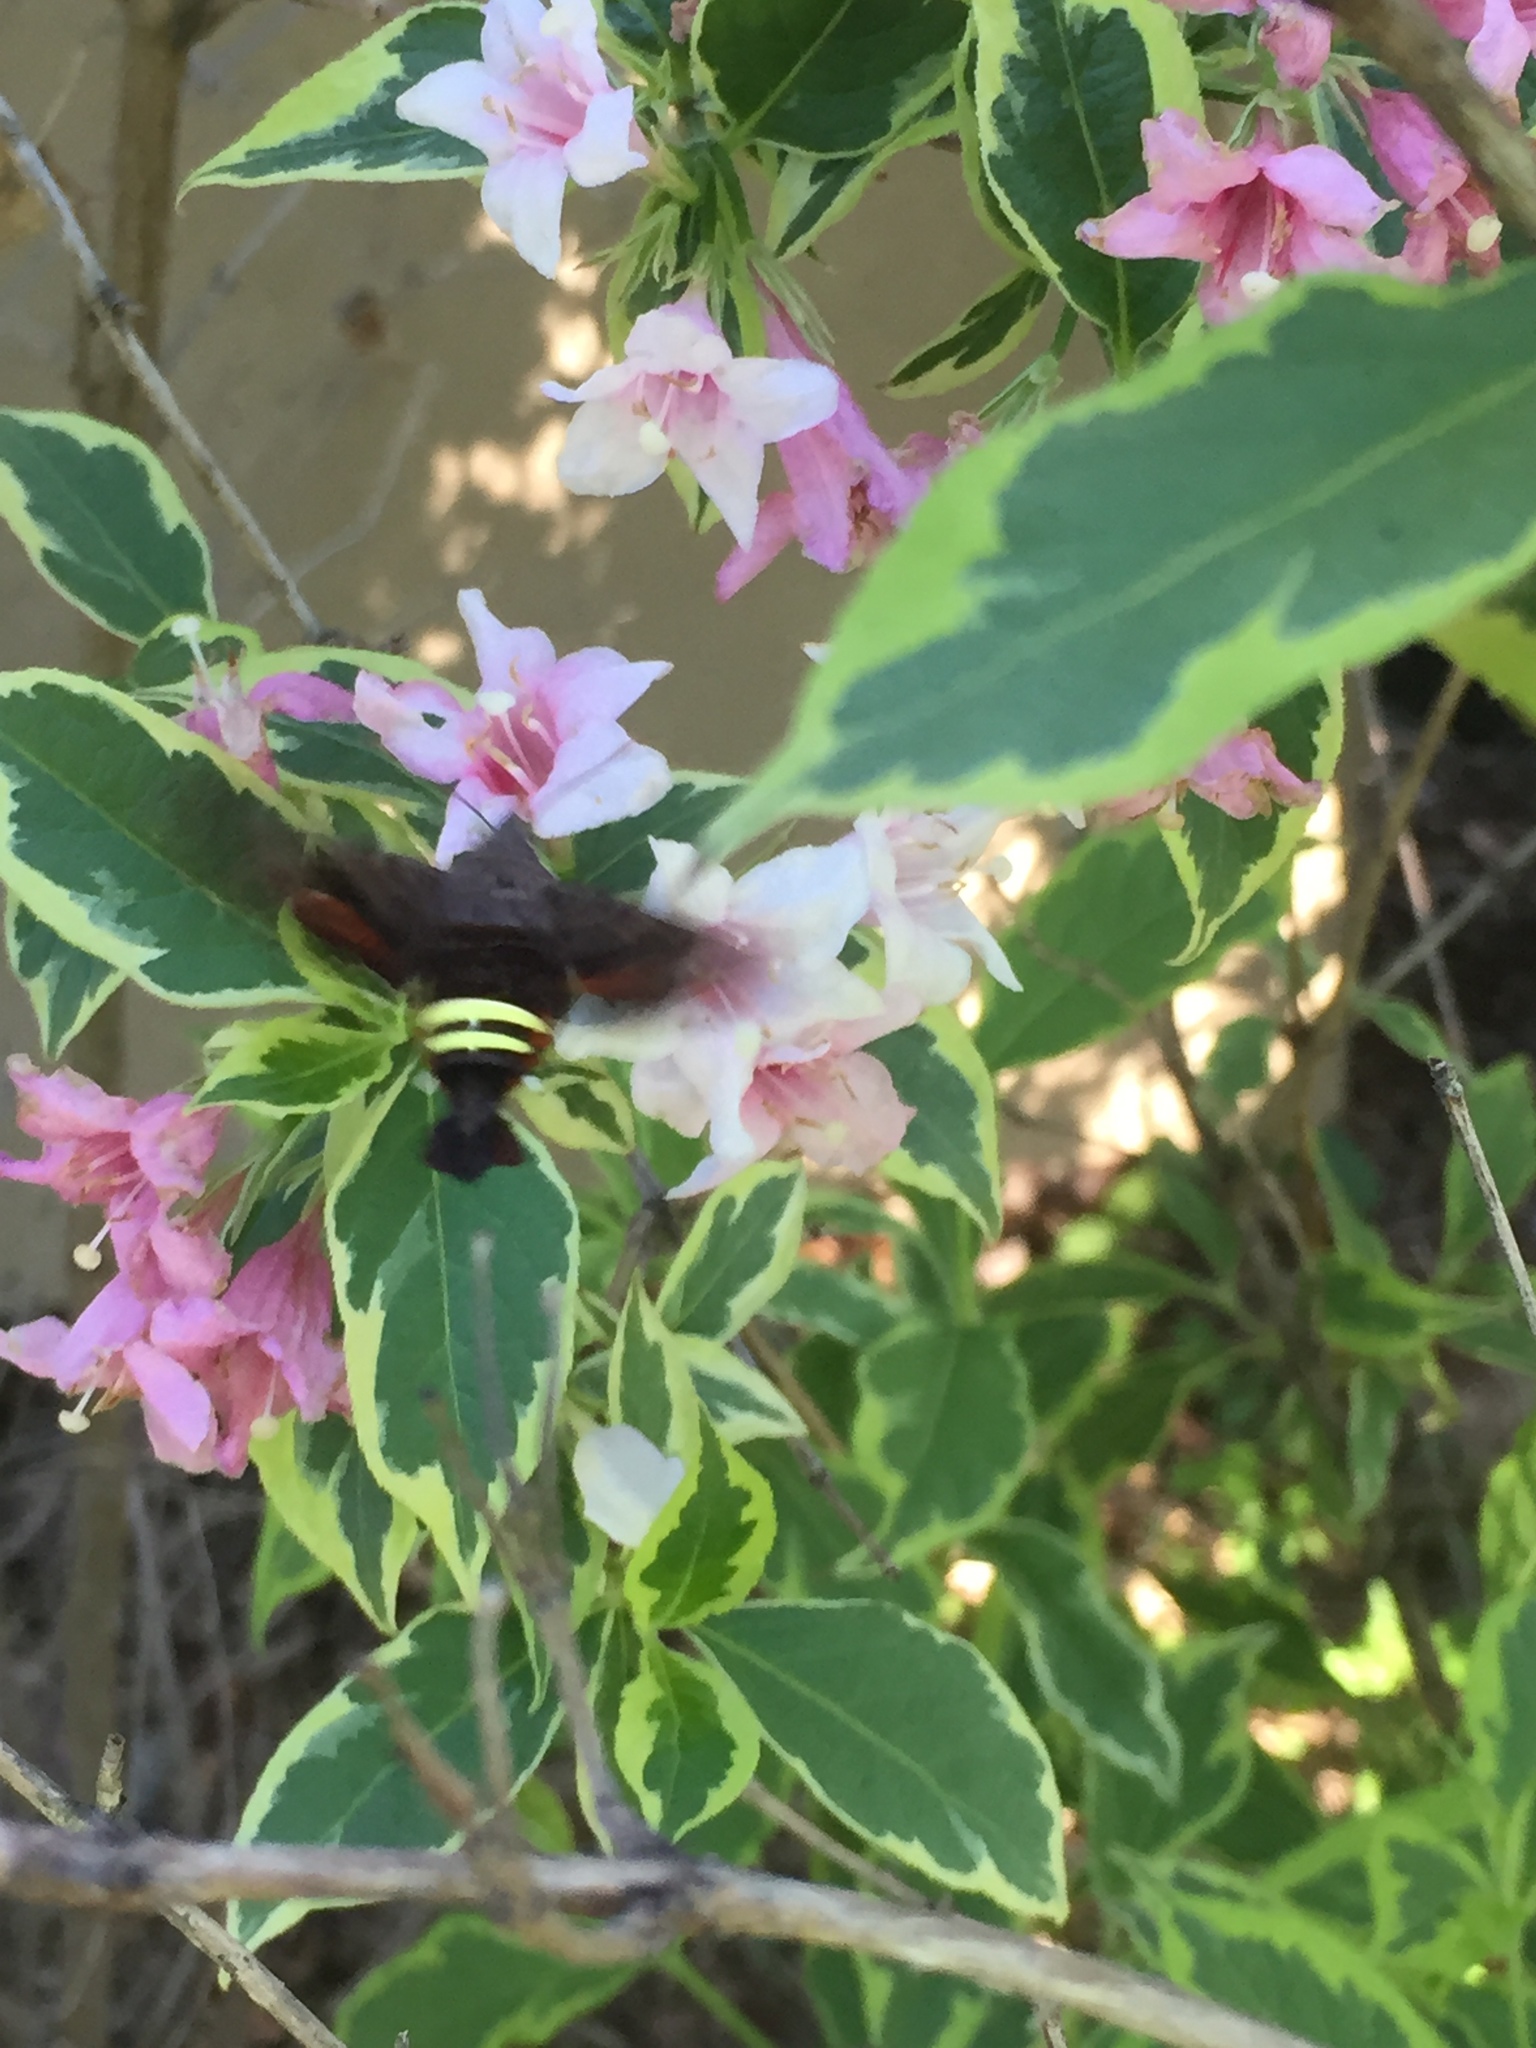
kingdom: Animalia
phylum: Arthropoda
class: Insecta
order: Lepidoptera
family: Sphingidae
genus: Amphion
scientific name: Amphion floridensis
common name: Nessus sphinx
